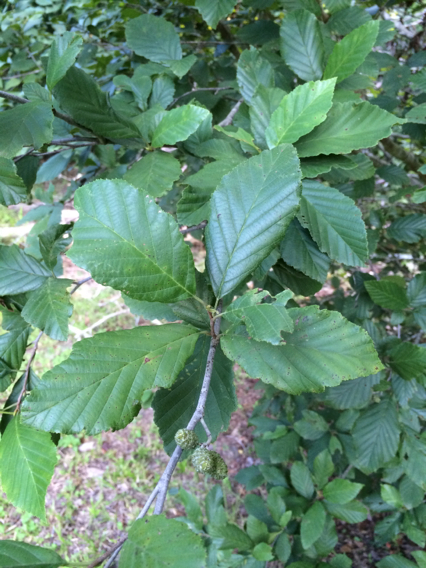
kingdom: Plantae
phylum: Tracheophyta
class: Magnoliopsida
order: Fagales
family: Betulaceae
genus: Alnus
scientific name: Alnus serrulata
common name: Hazel alder
